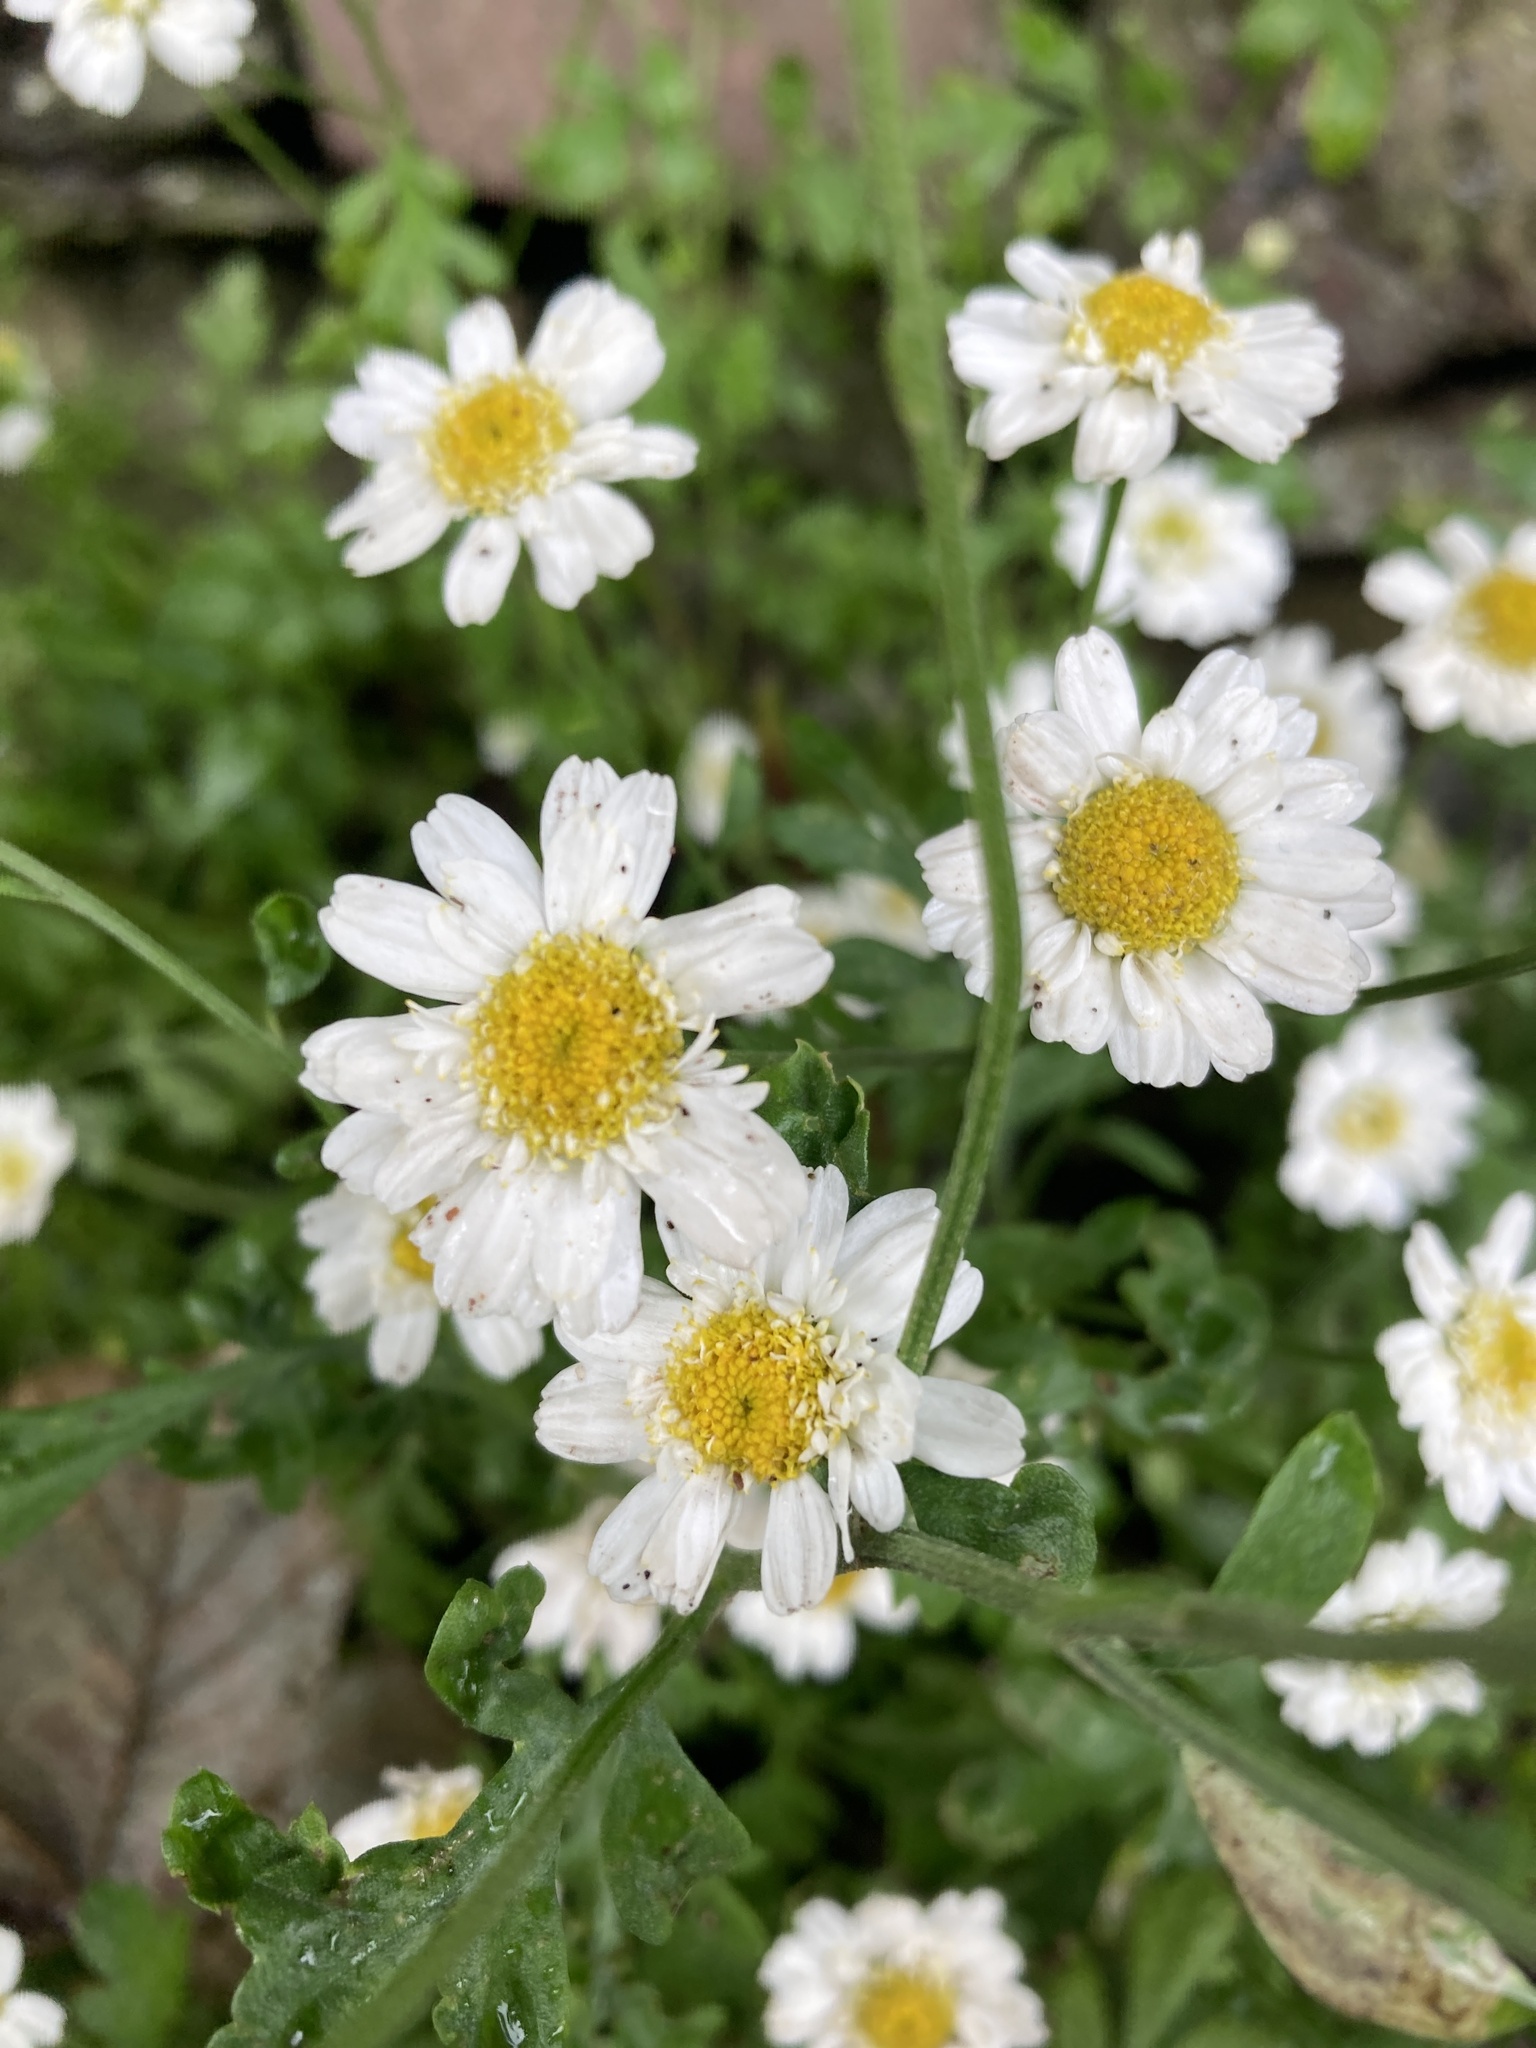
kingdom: Plantae
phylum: Tracheophyta
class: Magnoliopsida
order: Asterales
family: Asteraceae
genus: Tanacetum
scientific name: Tanacetum parthenium
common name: Feverfew
